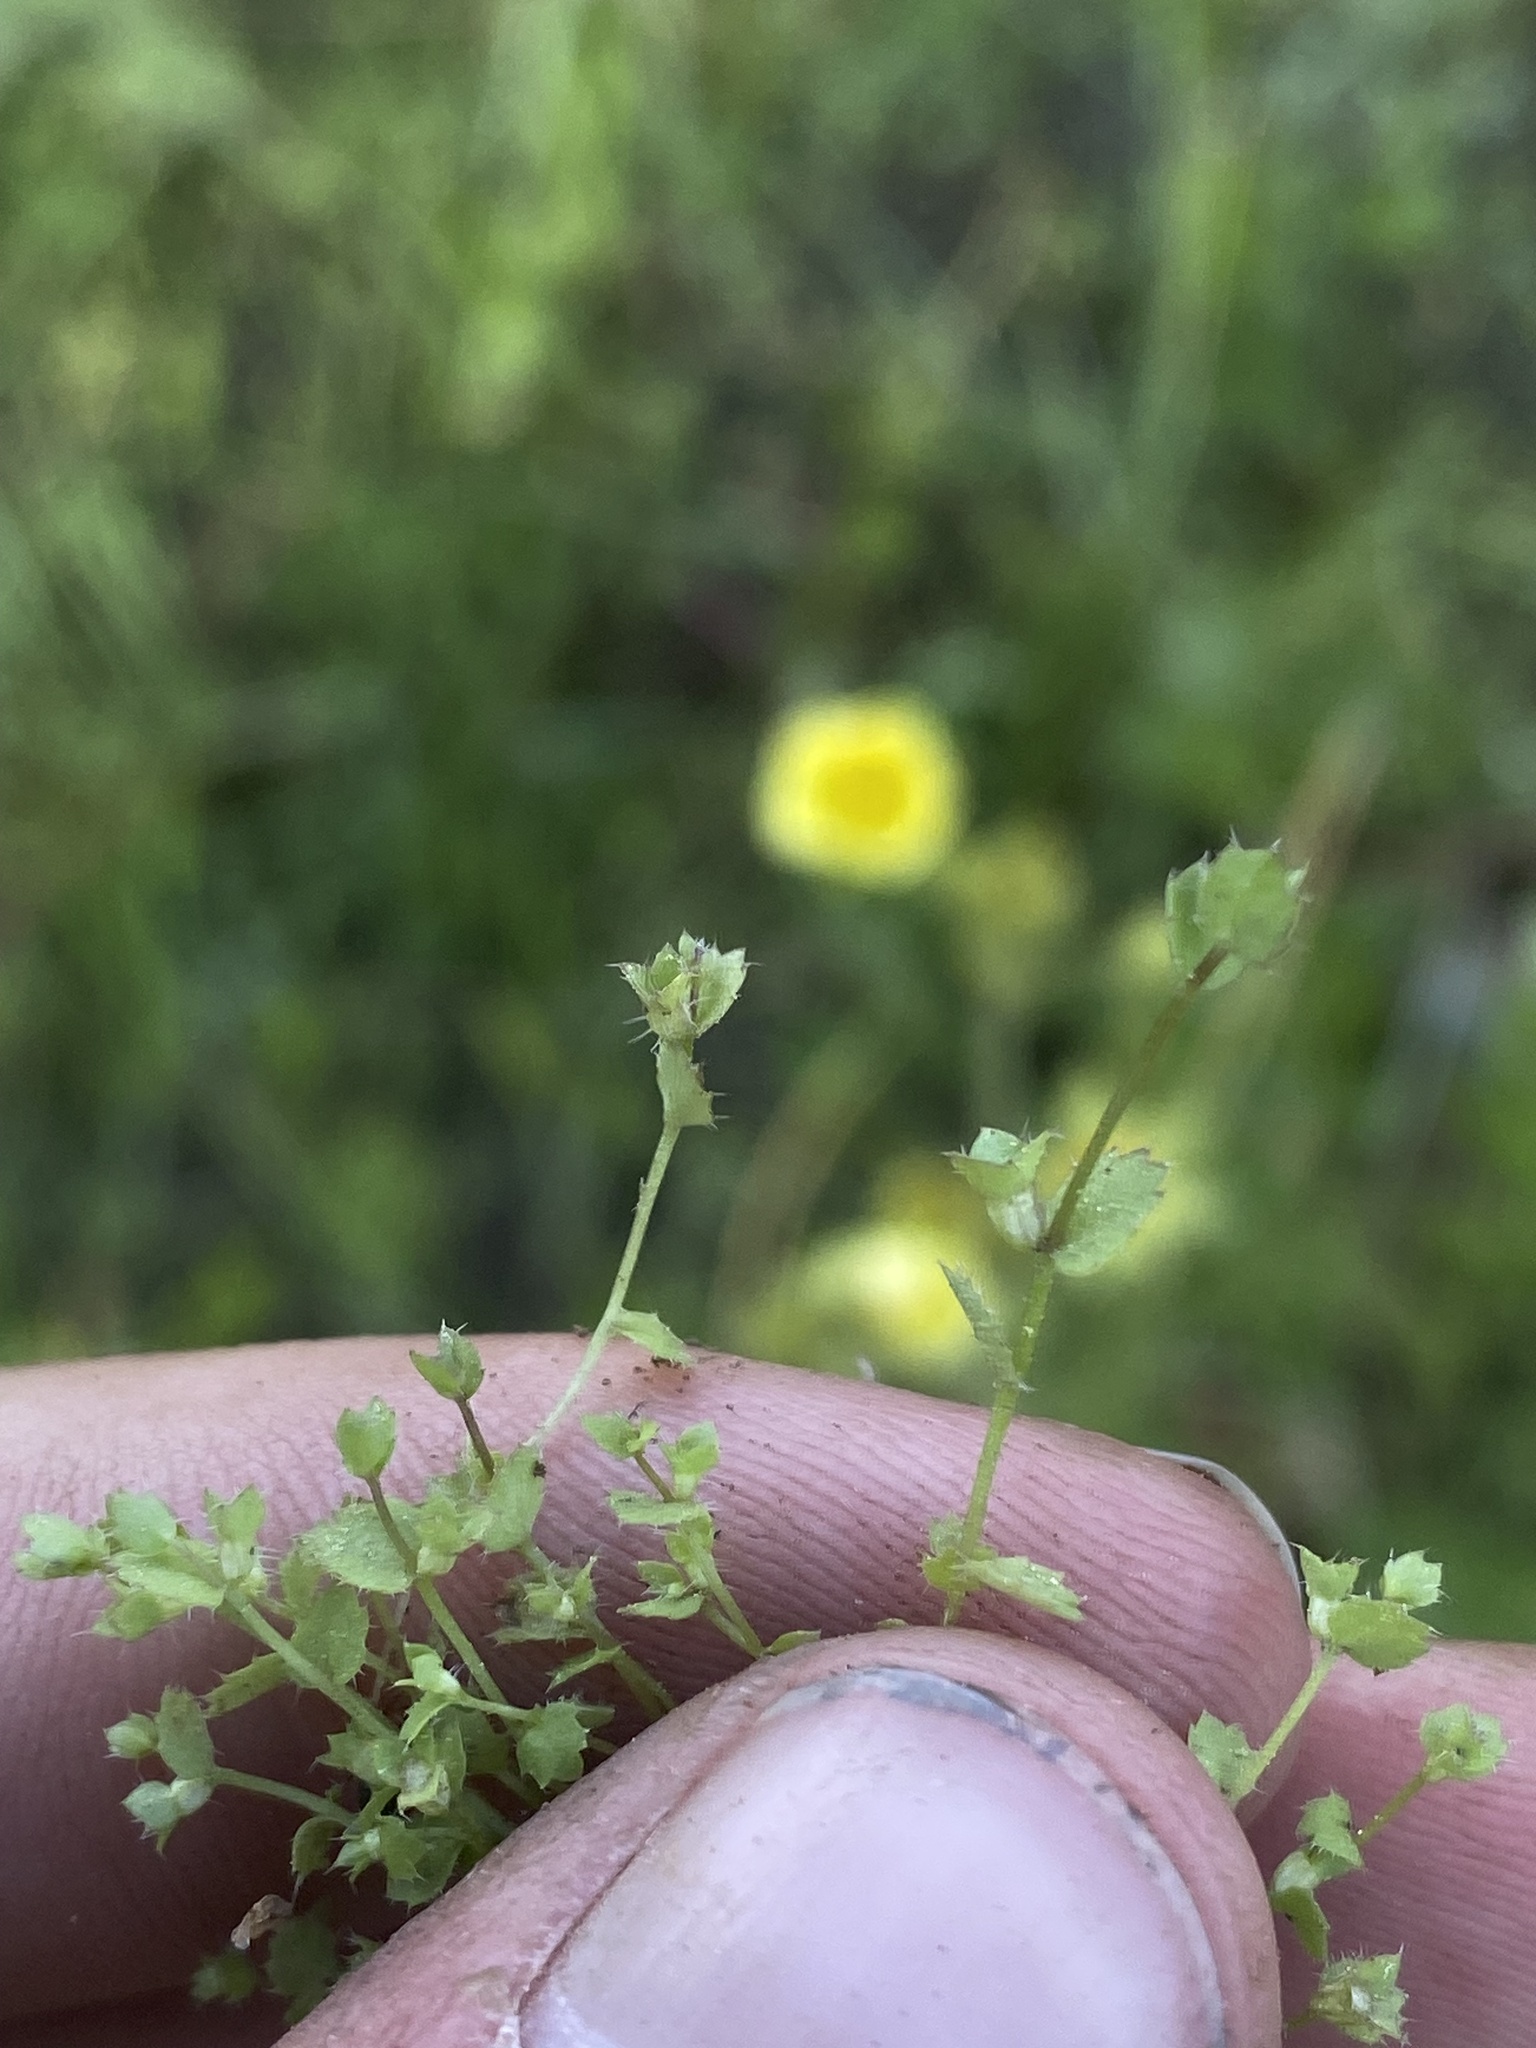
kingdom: Plantae
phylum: Tracheophyta
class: Magnoliopsida
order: Asterales
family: Campanulaceae
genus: Heterocodon
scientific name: Heterocodon rariflorum
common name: Rareflower heterocodon
